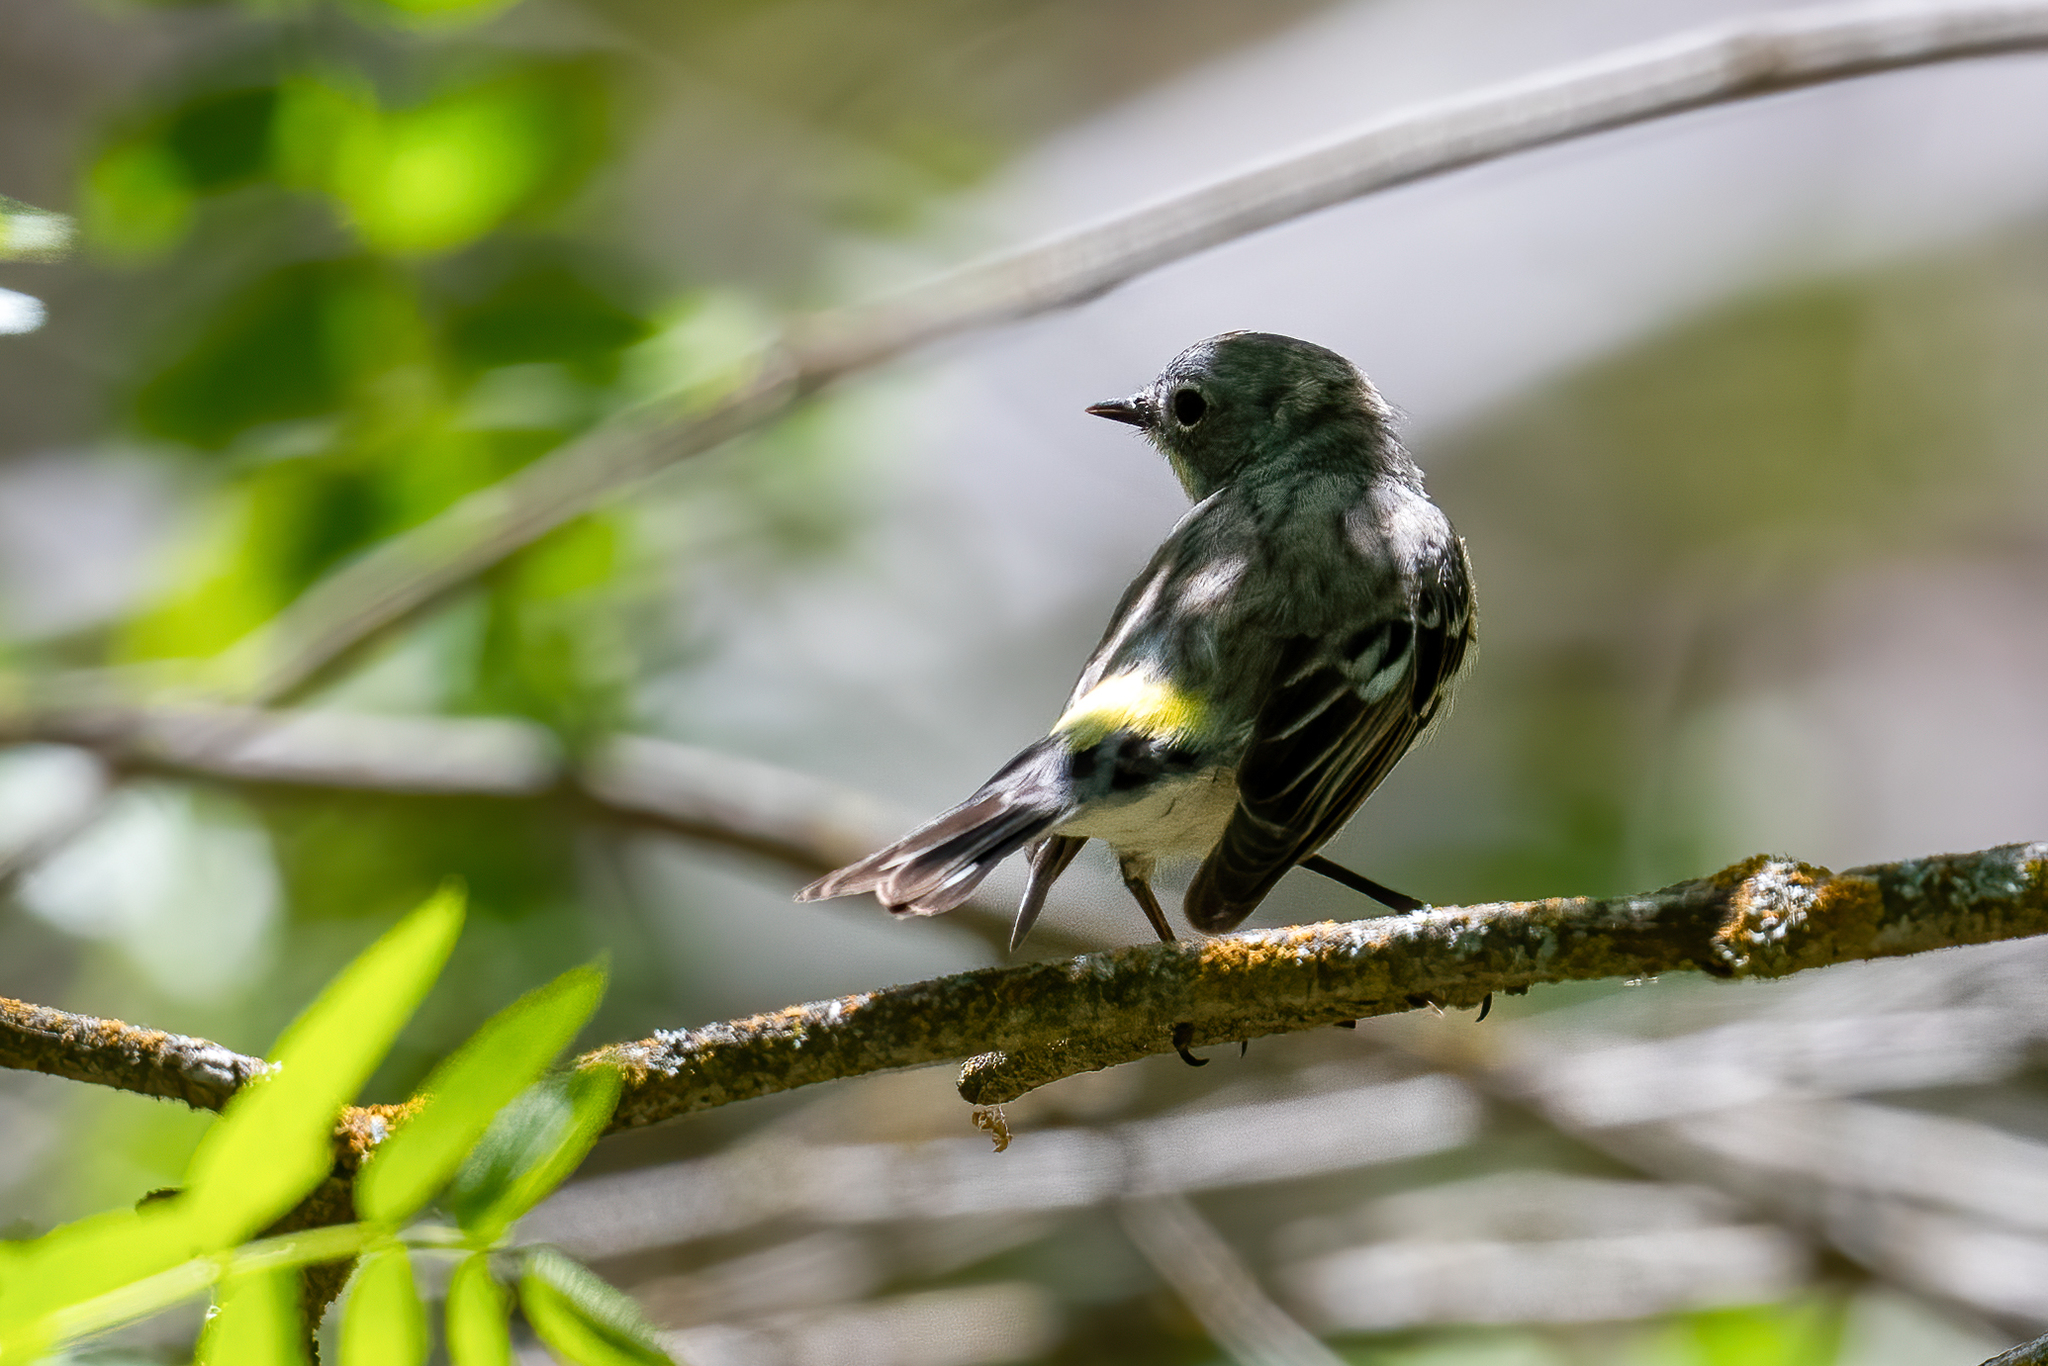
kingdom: Animalia
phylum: Chordata
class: Aves
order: Passeriformes
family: Parulidae
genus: Setophaga
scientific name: Setophaga coronata
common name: Myrtle warbler
